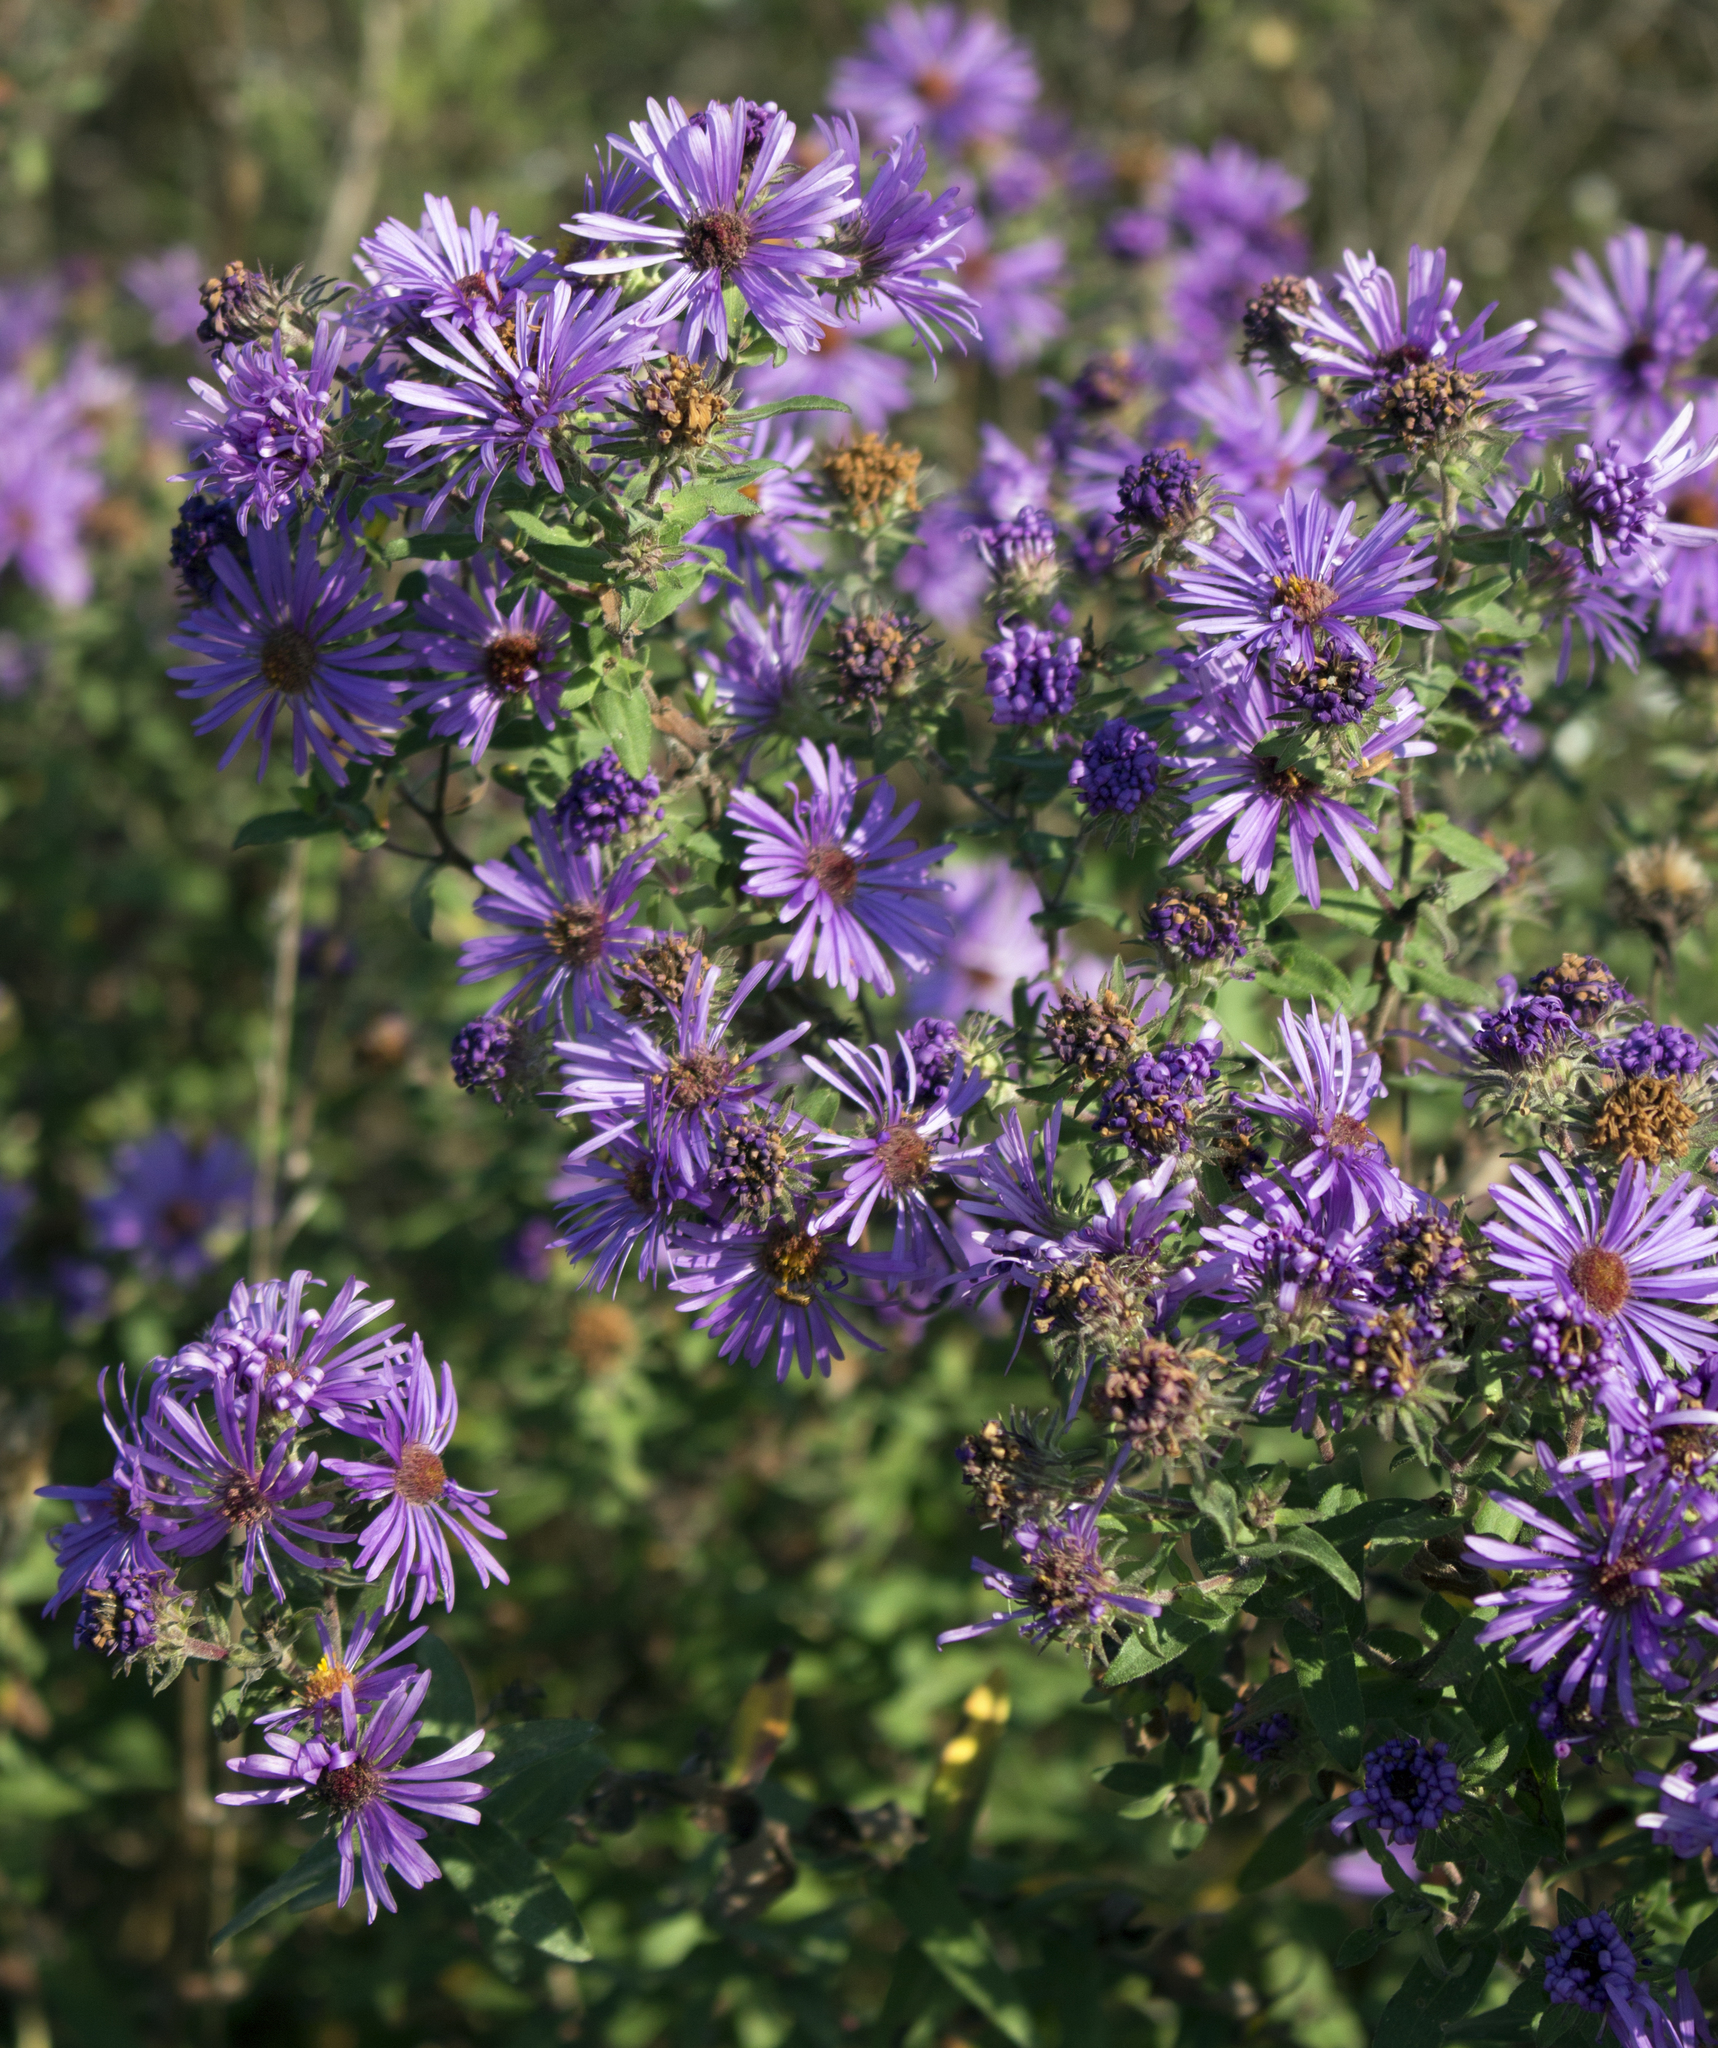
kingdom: Plantae
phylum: Tracheophyta
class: Magnoliopsida
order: Asterales
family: Asteraceae
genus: Symphyotrichum
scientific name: Symphyotrichum novae-angliae
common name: Michaelmas daisy
